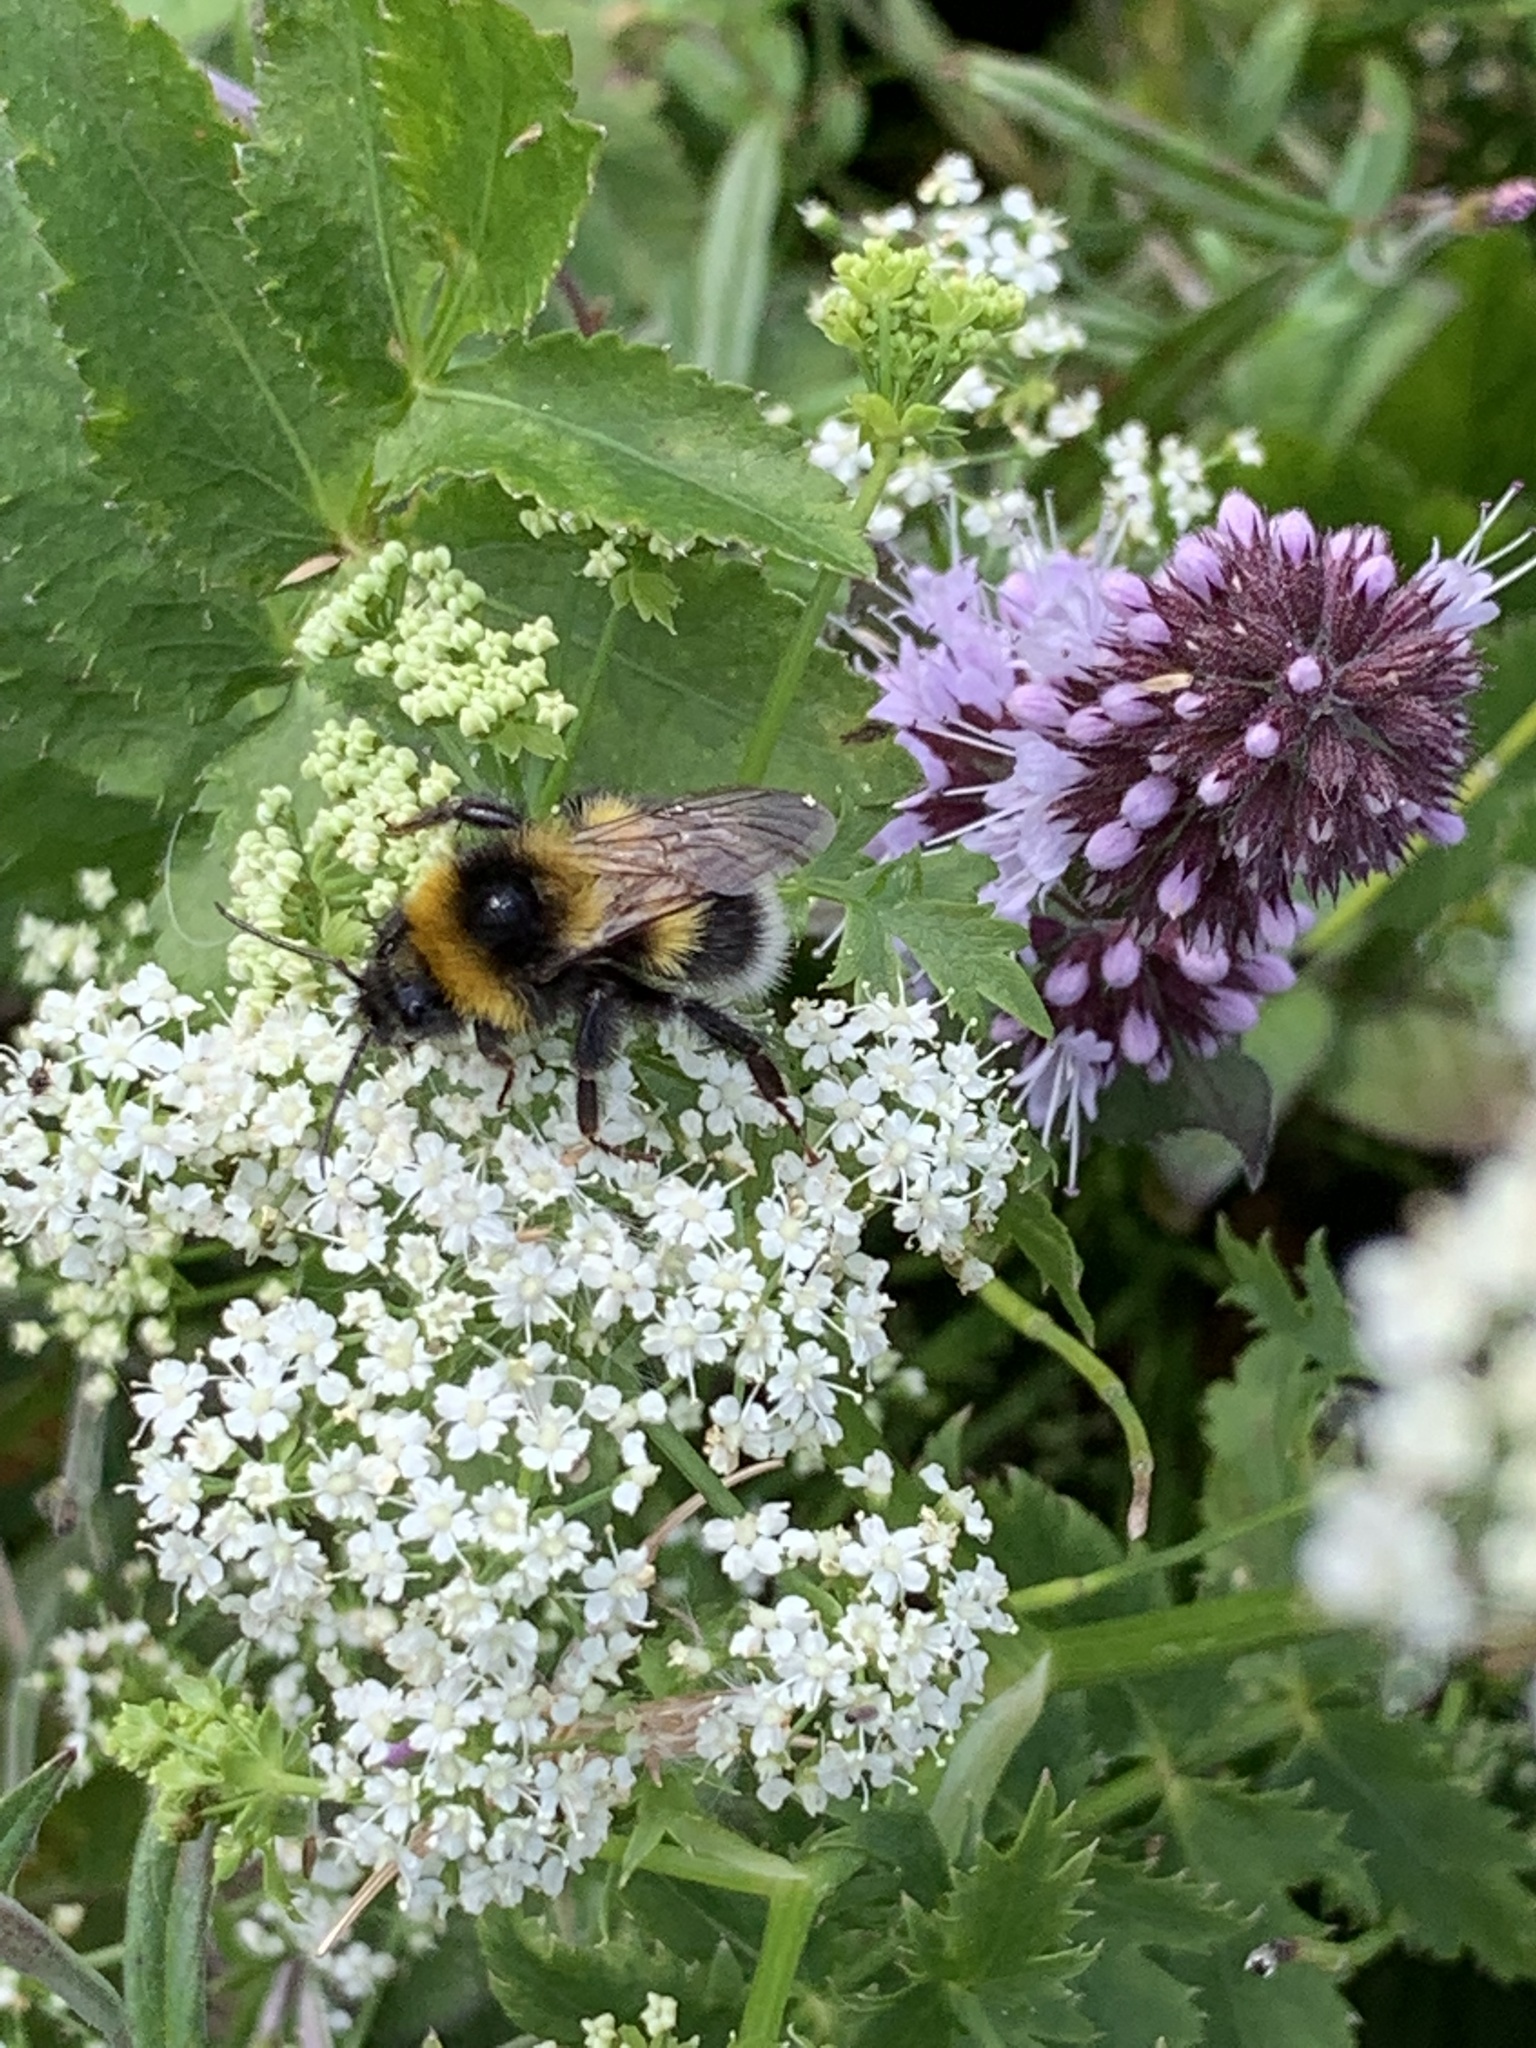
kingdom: Animalia
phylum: Arthropoda
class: Insecta
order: Hymenoptera
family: Apidae
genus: Bombus
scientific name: Bombus hortorum
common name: Garden bumblebee
